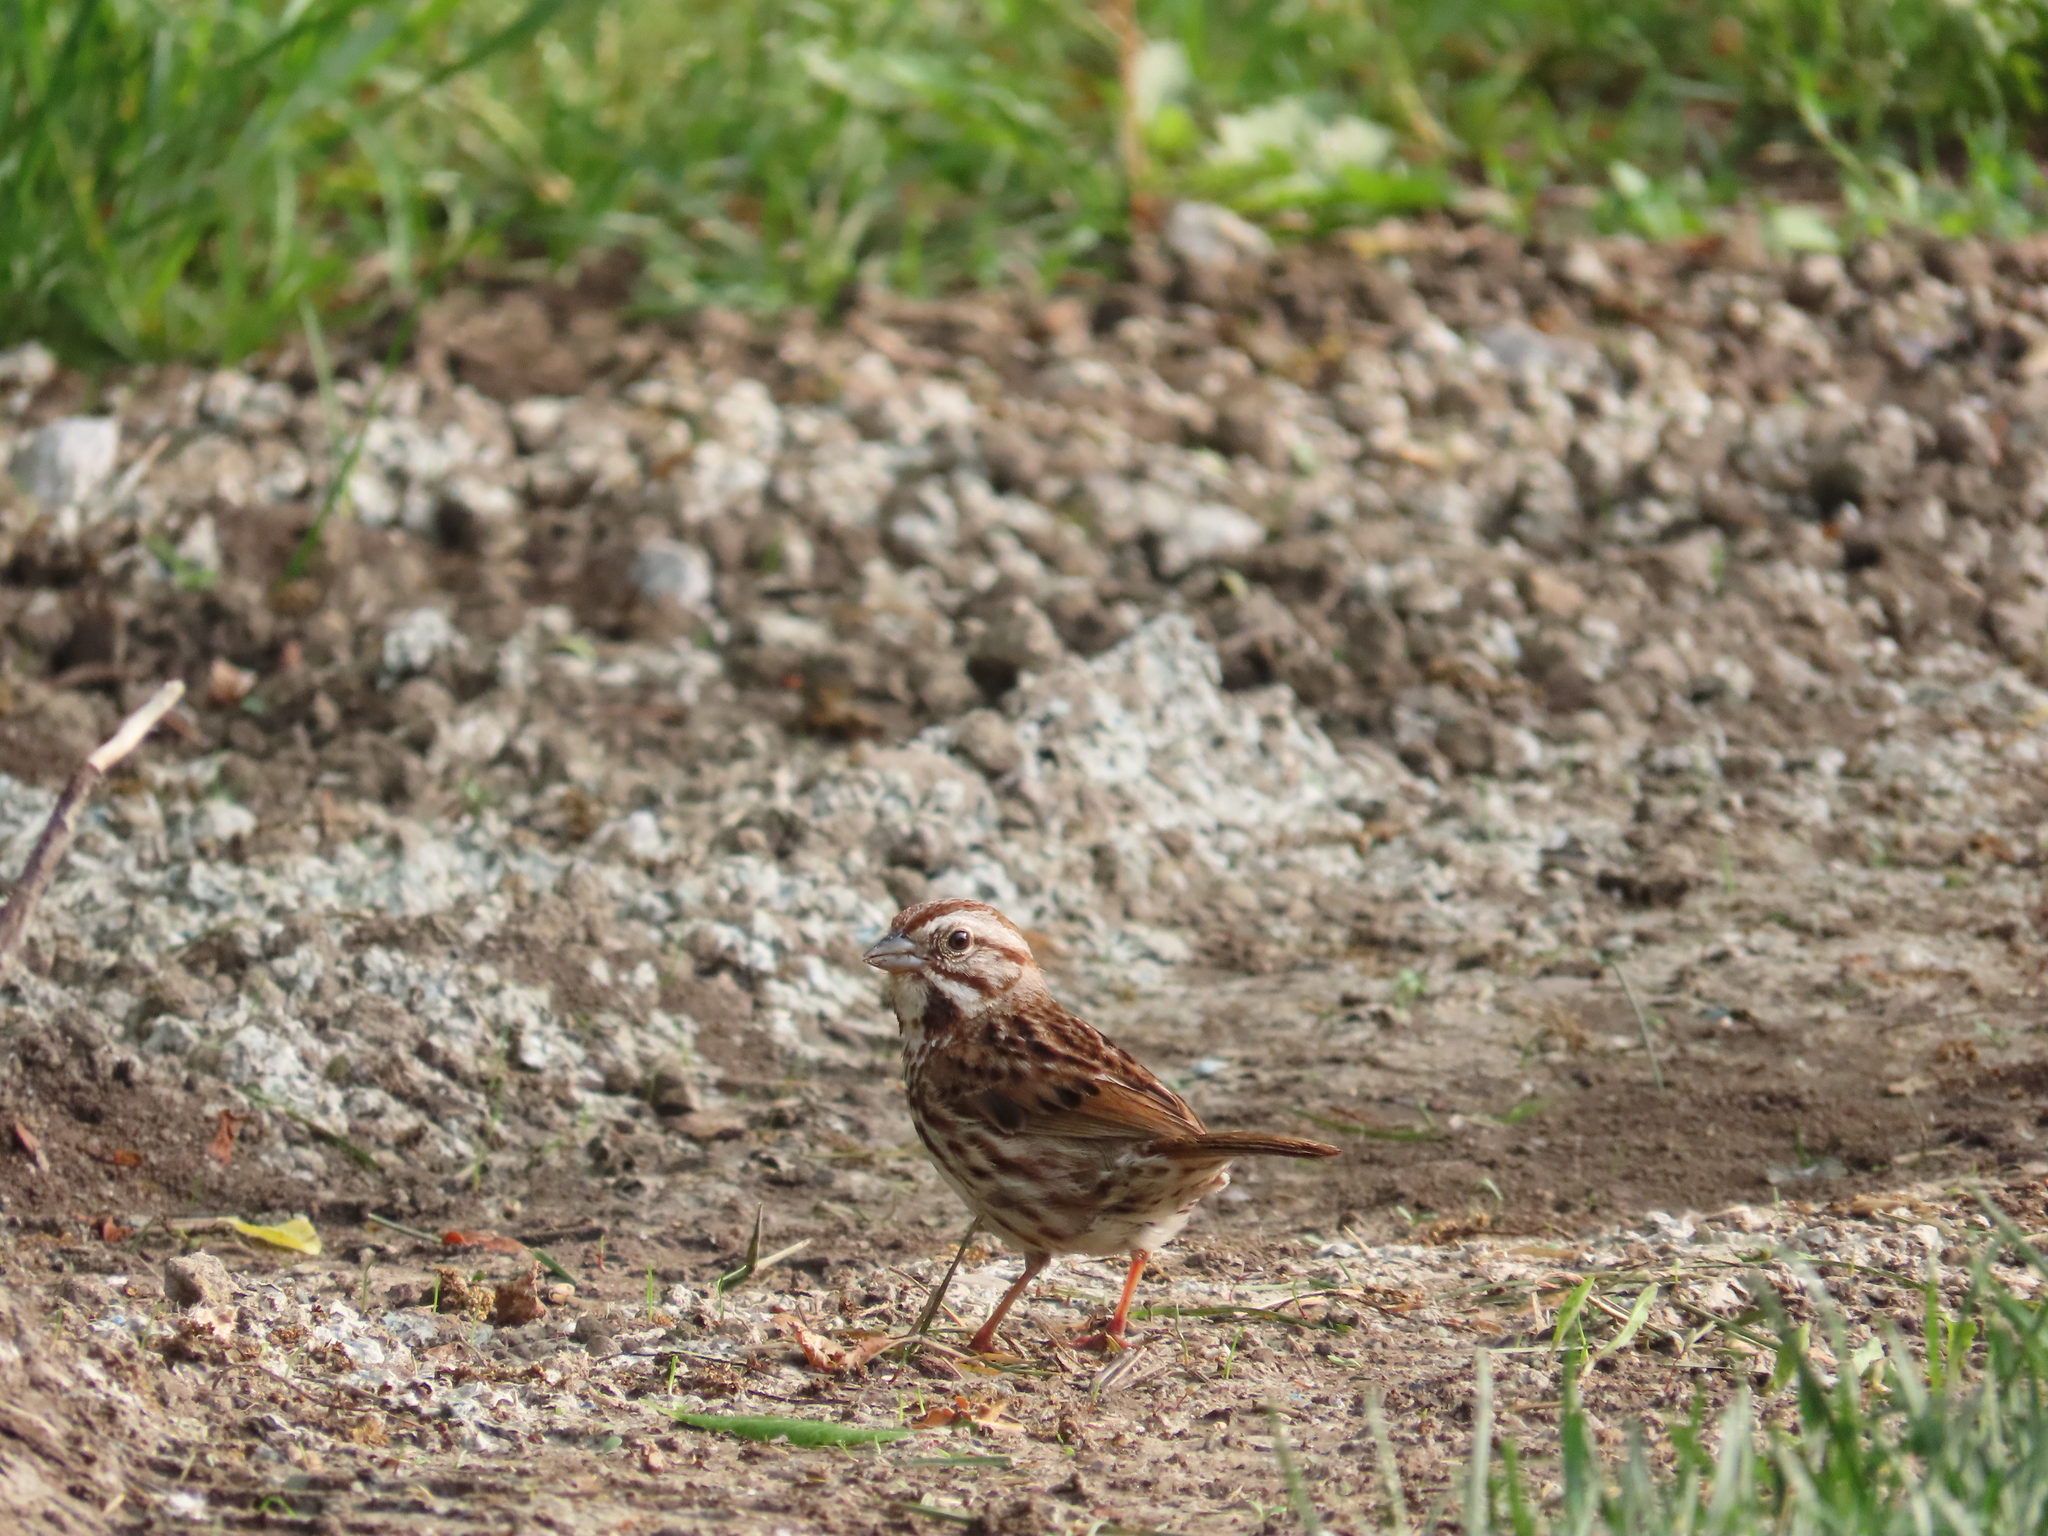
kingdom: Animalia
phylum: Chordata
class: Aves
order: Passeriformes
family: Passerellidae
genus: Melospiza
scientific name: Melospiza melodia
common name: Song sparrow
